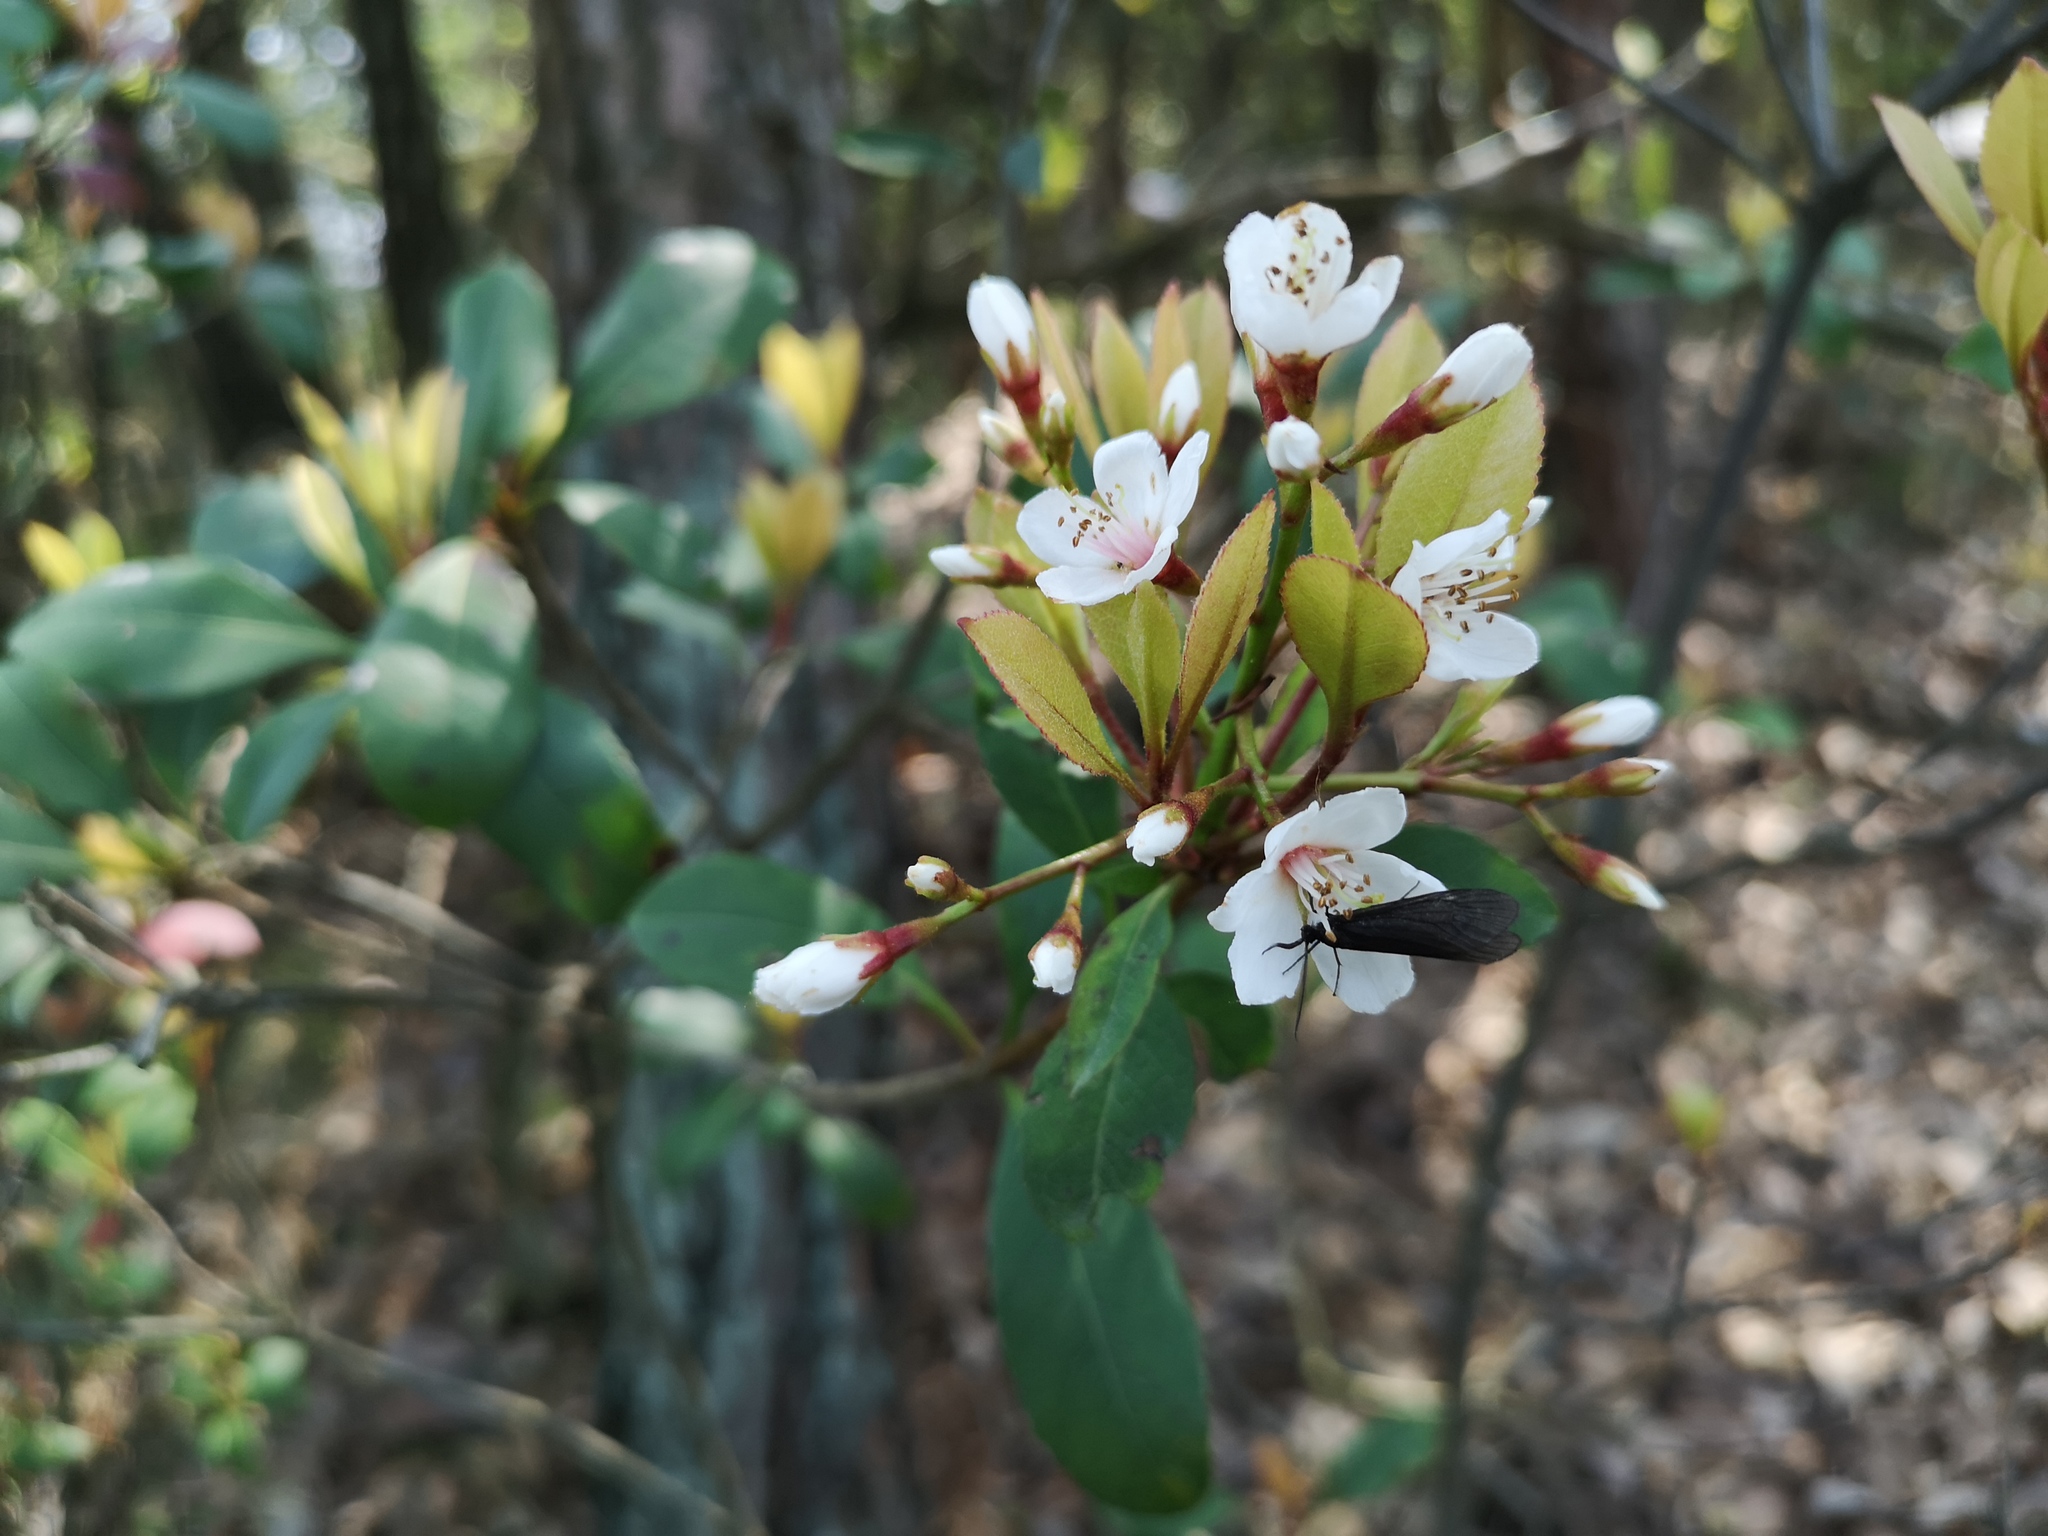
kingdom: Plantae
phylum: Tracheophyta
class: Magnoliopsida
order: Rosales
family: Rosaceae
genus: Rhaphiolepis
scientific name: Rhaphiolepis indica
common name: India-hawthorn
